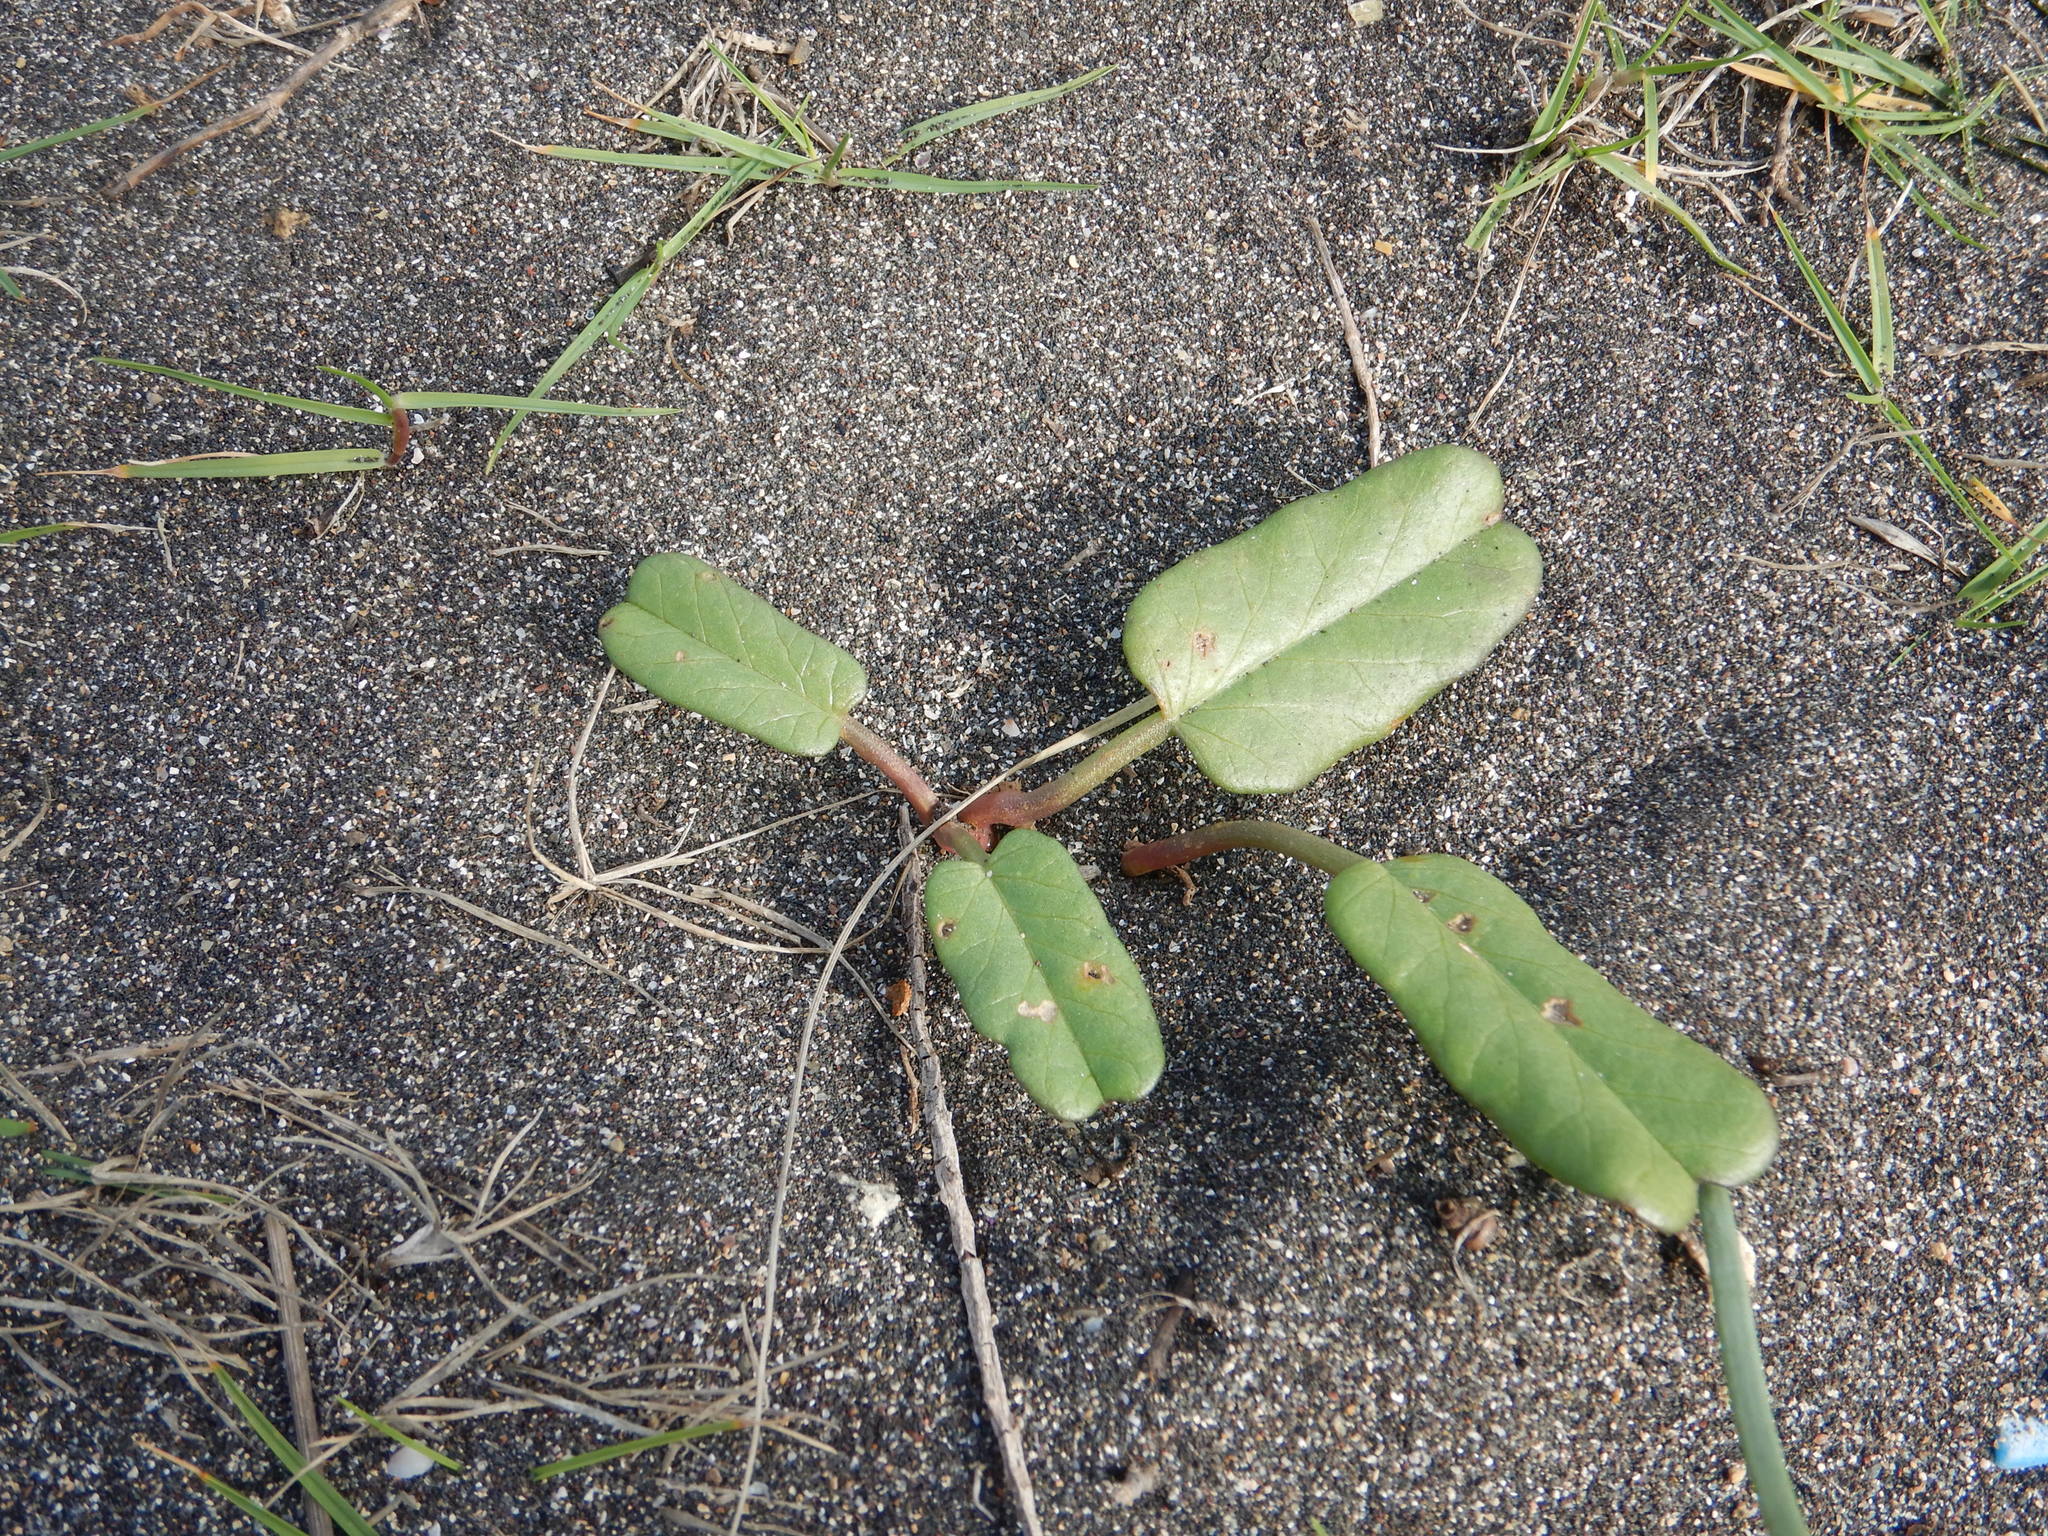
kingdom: Plantae
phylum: Tracheophyta
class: Magnoliopsida
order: Solanales
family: Convolvulaceae
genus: Ipomoea
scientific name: Ipomoea imperati
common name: Fiddle-leaf morning-glory
